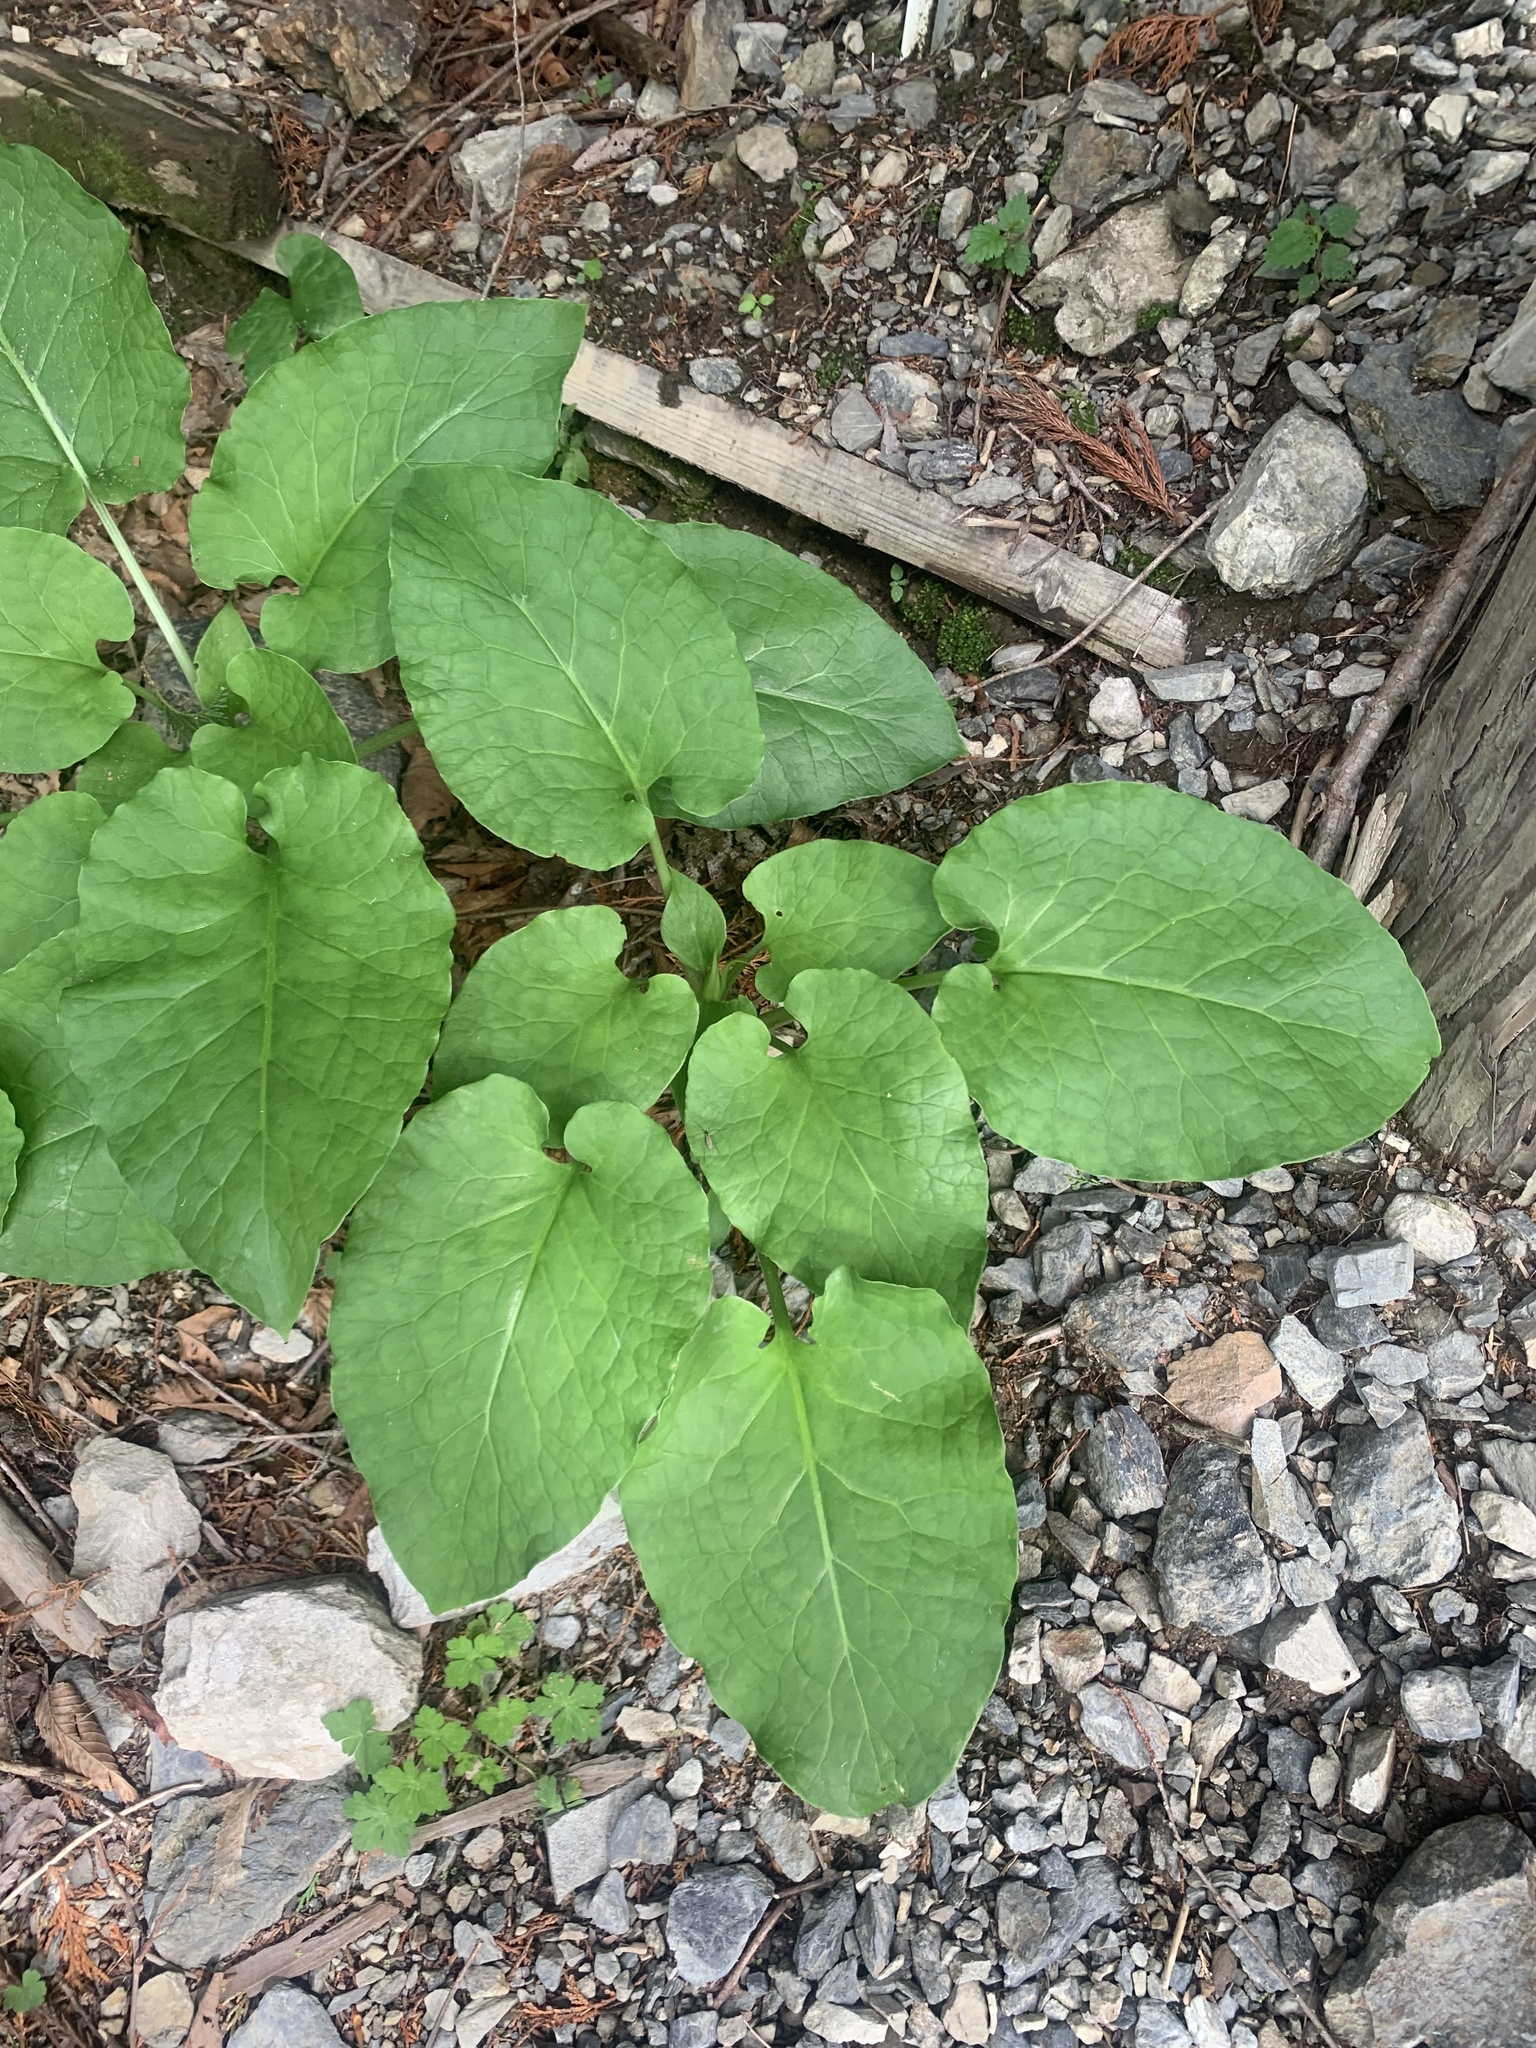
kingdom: Plantae
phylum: Tracheophyta
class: Liliopsida
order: Liliales
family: Liliaceae
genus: Cardiocrinum
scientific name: Cardiocrinum cordatum
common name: Lily
